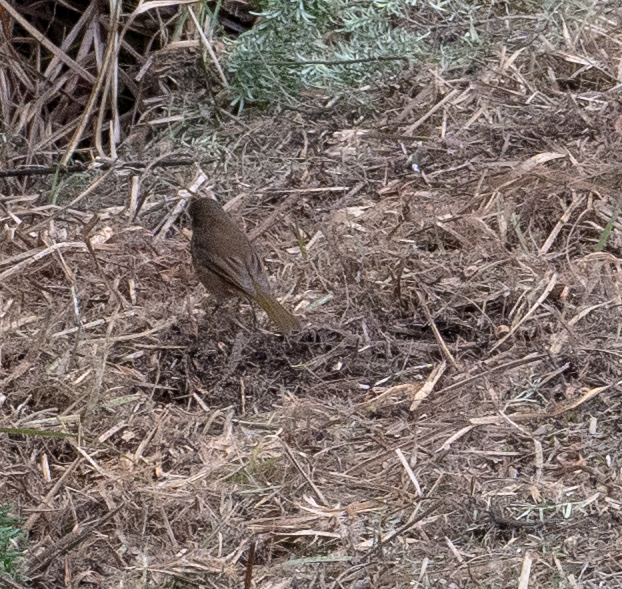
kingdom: Animalia
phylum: Chordata
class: Aves
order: Passeriformes
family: Pachycephalidae
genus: Pachycephala
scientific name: Pachycephala pectoralis
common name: Australian golden whistler
